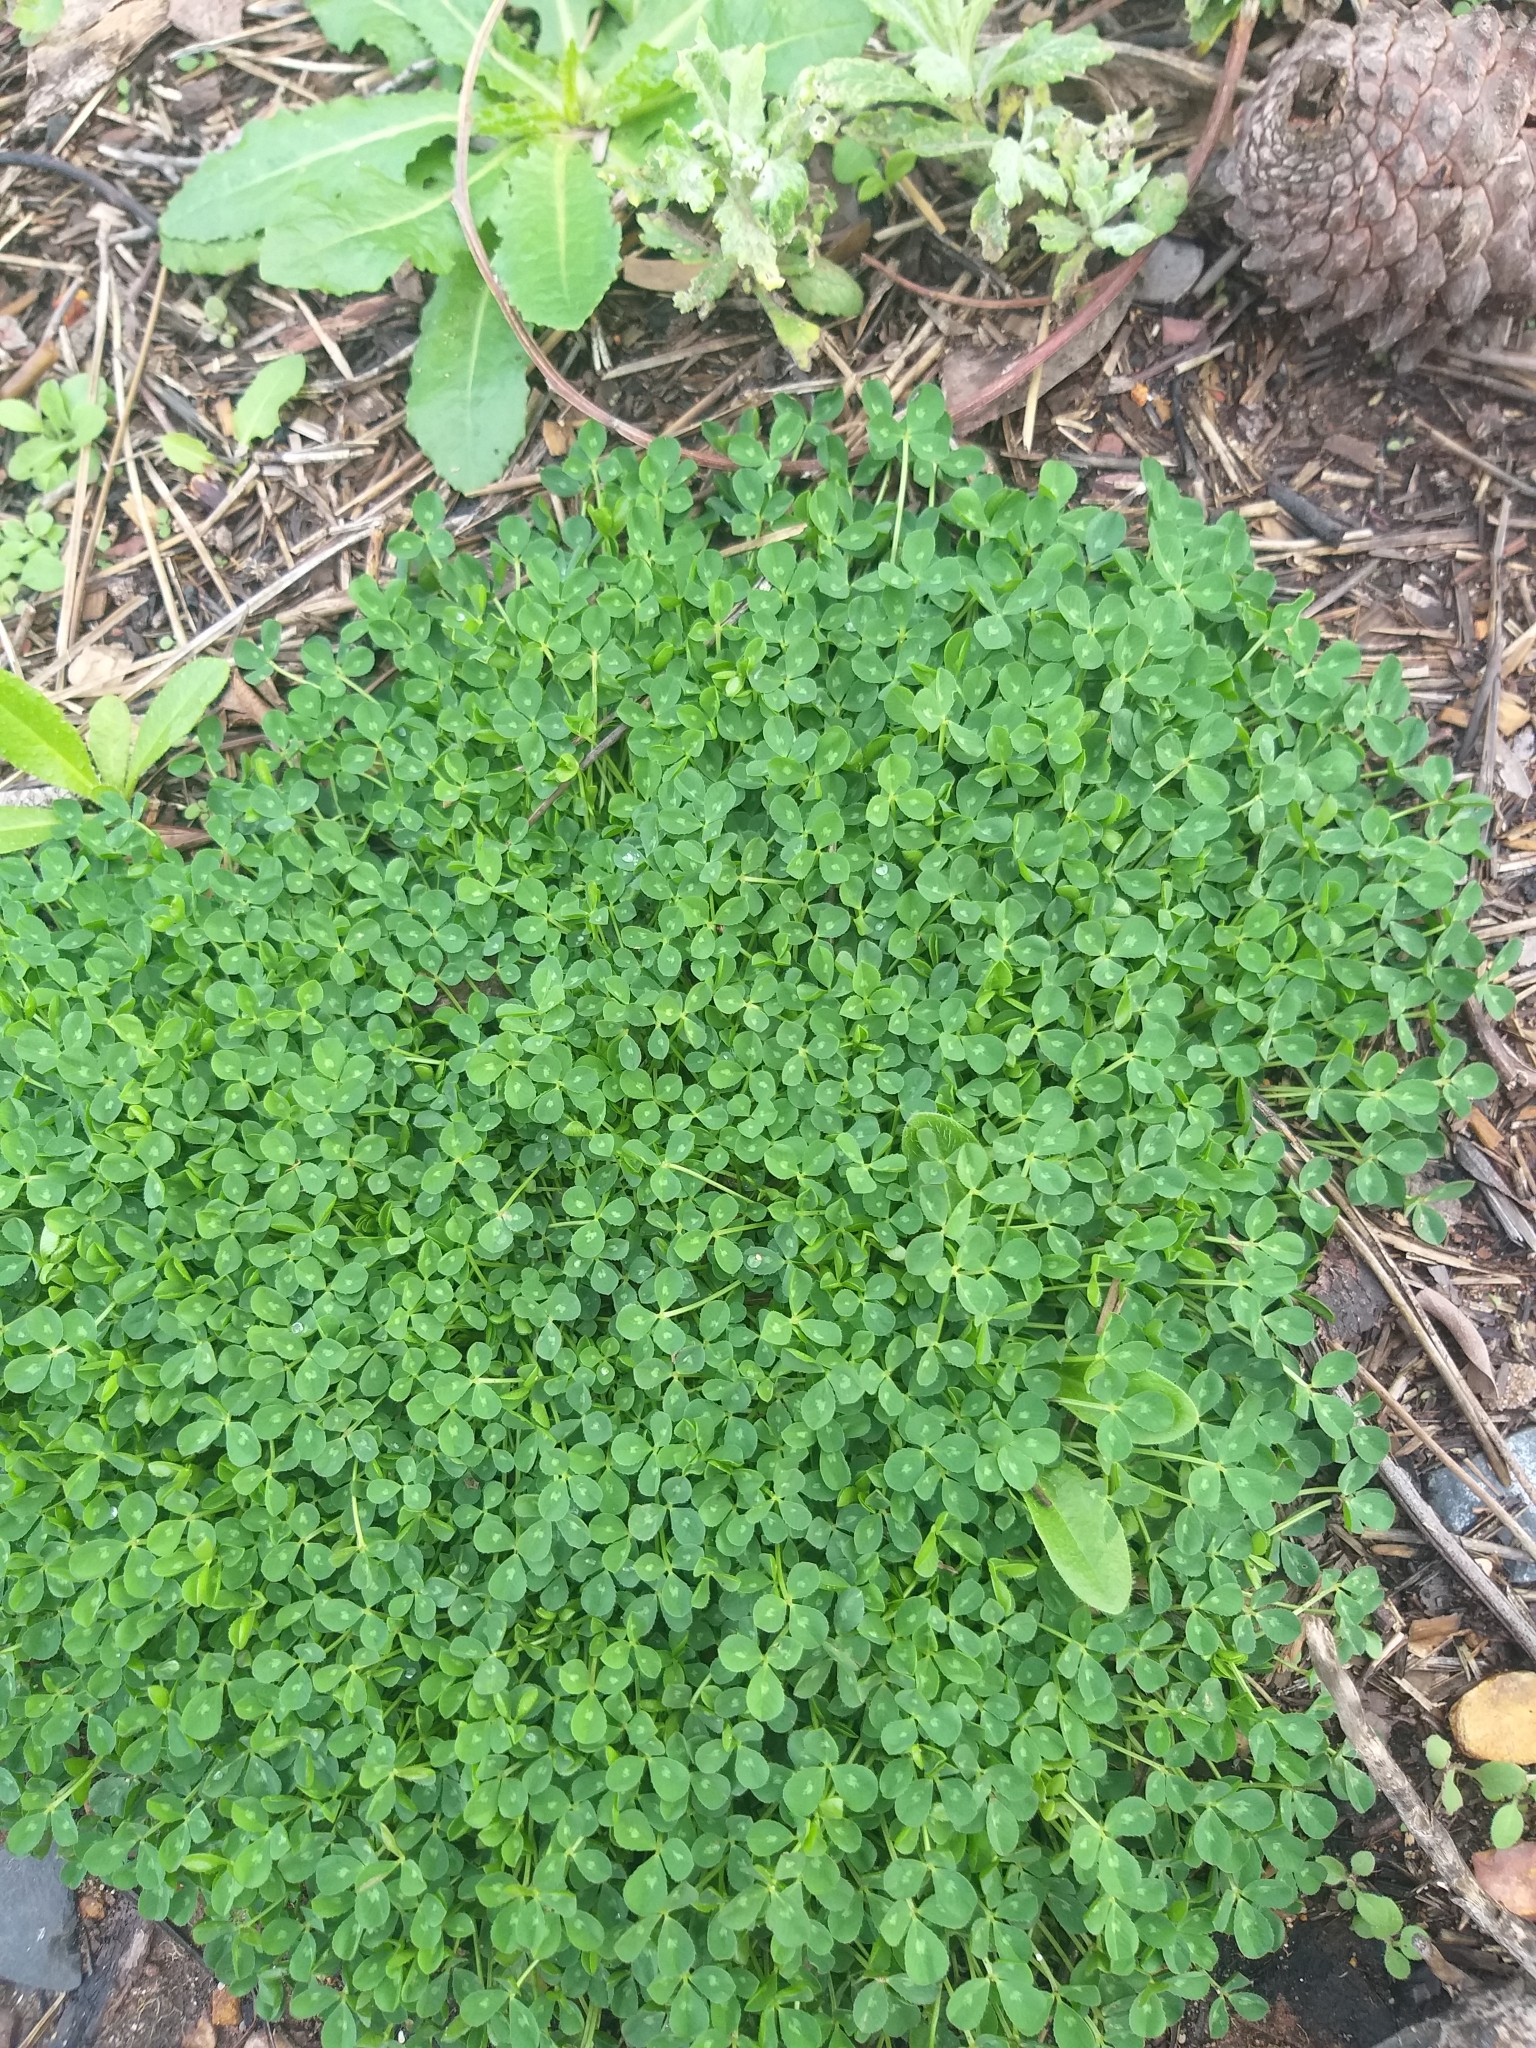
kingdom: Plantae
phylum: Tracheophyta
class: Magnoliopsida
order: Fabales
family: Fabaceae
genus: Trifolium
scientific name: Trifolium repens
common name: White clover
